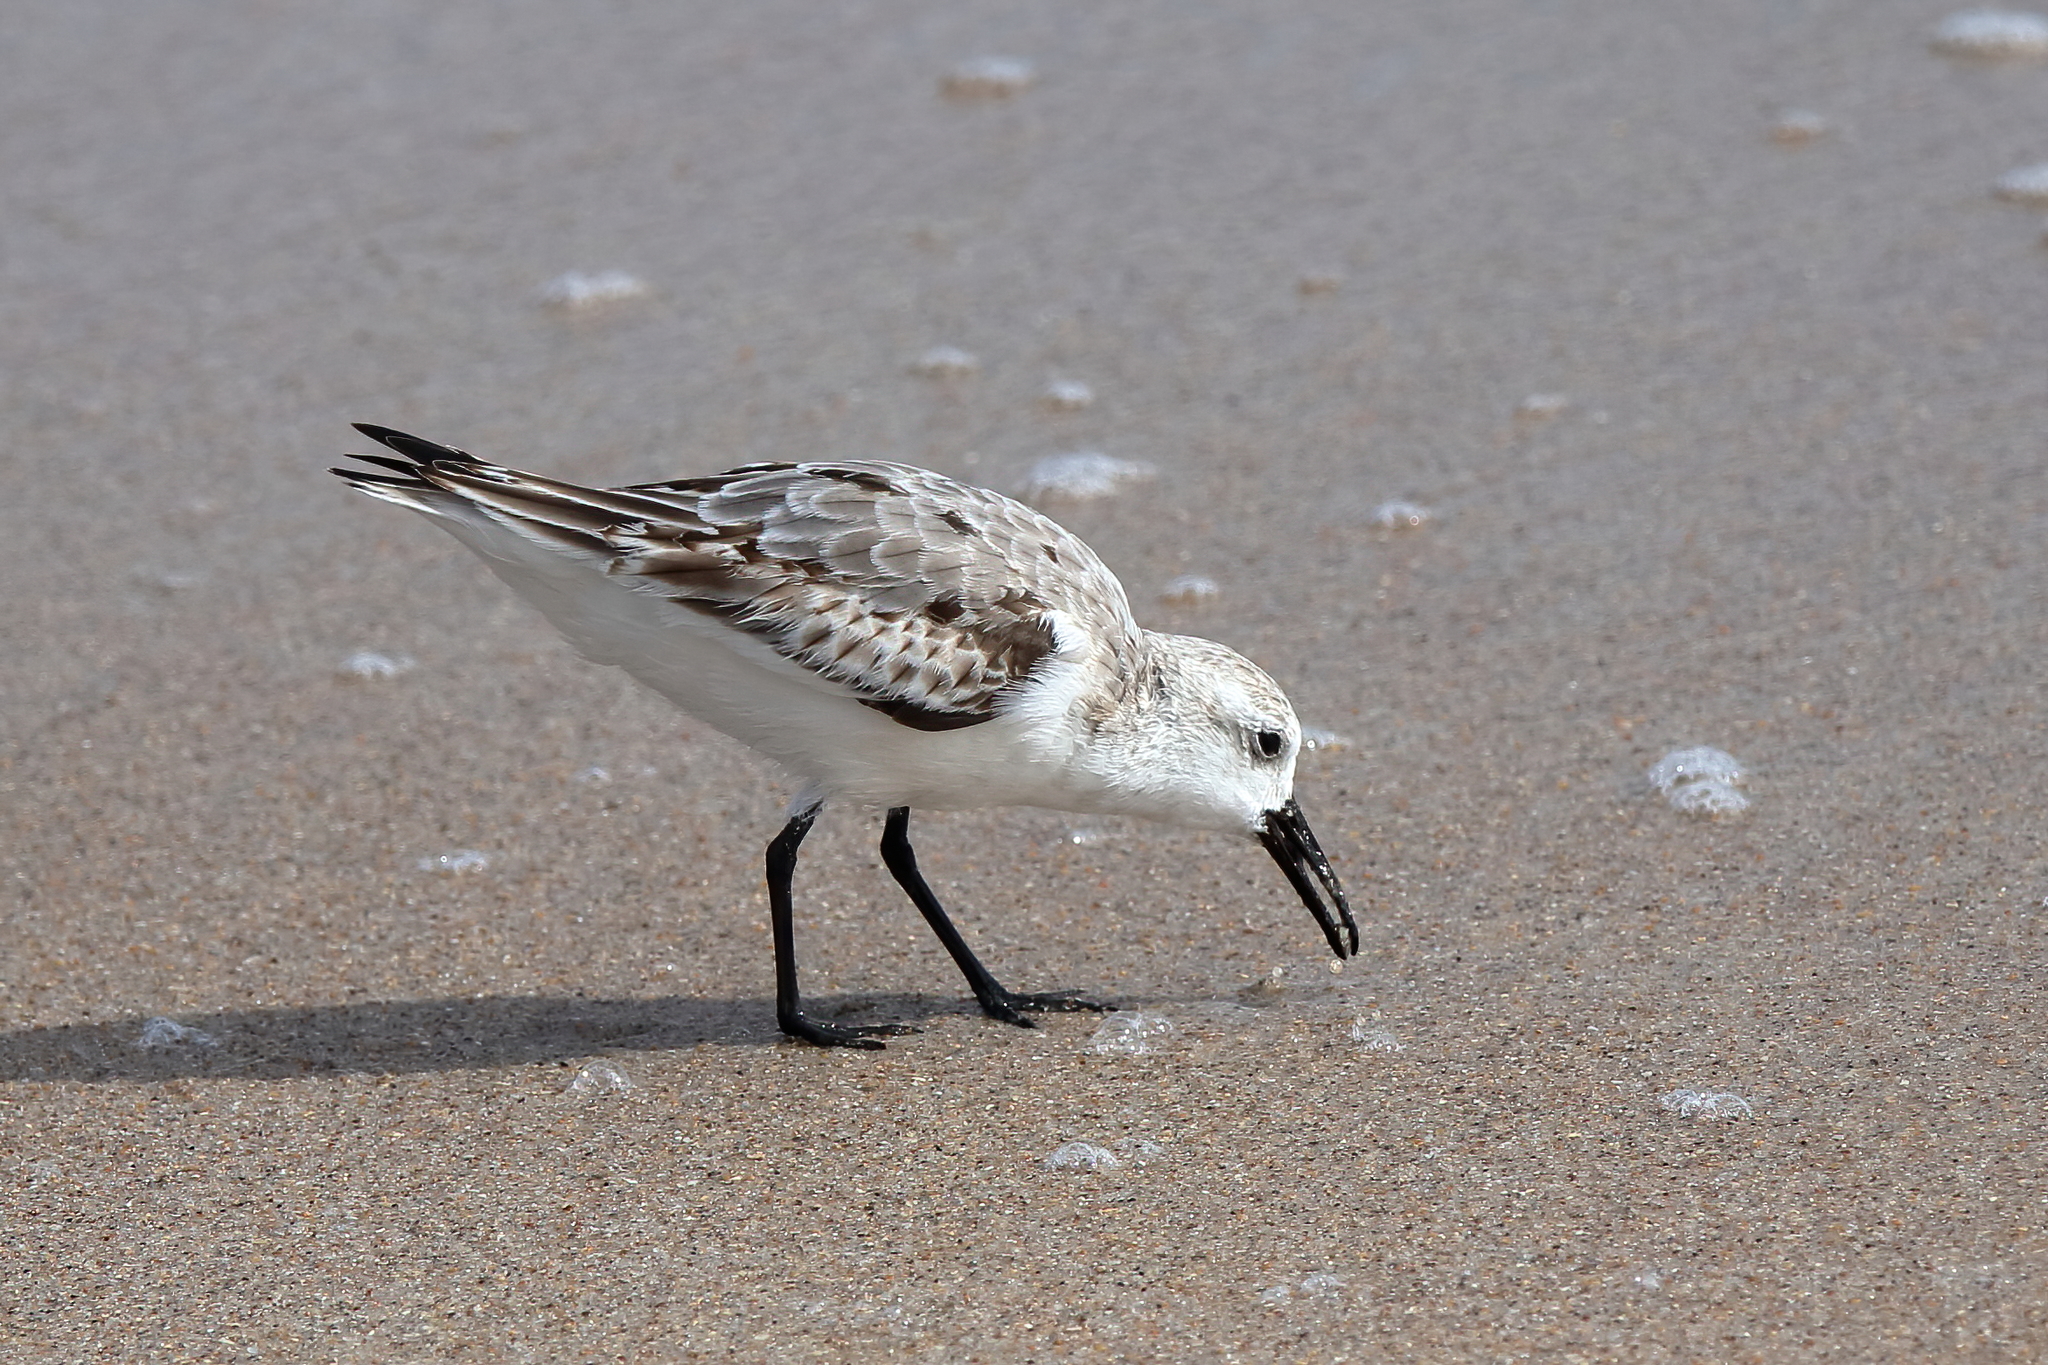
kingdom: Animalia
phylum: Chordata
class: Aves
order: Charadriiformes
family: Scolopacidae
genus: Calidris
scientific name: Calidris alba
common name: Sanderling
